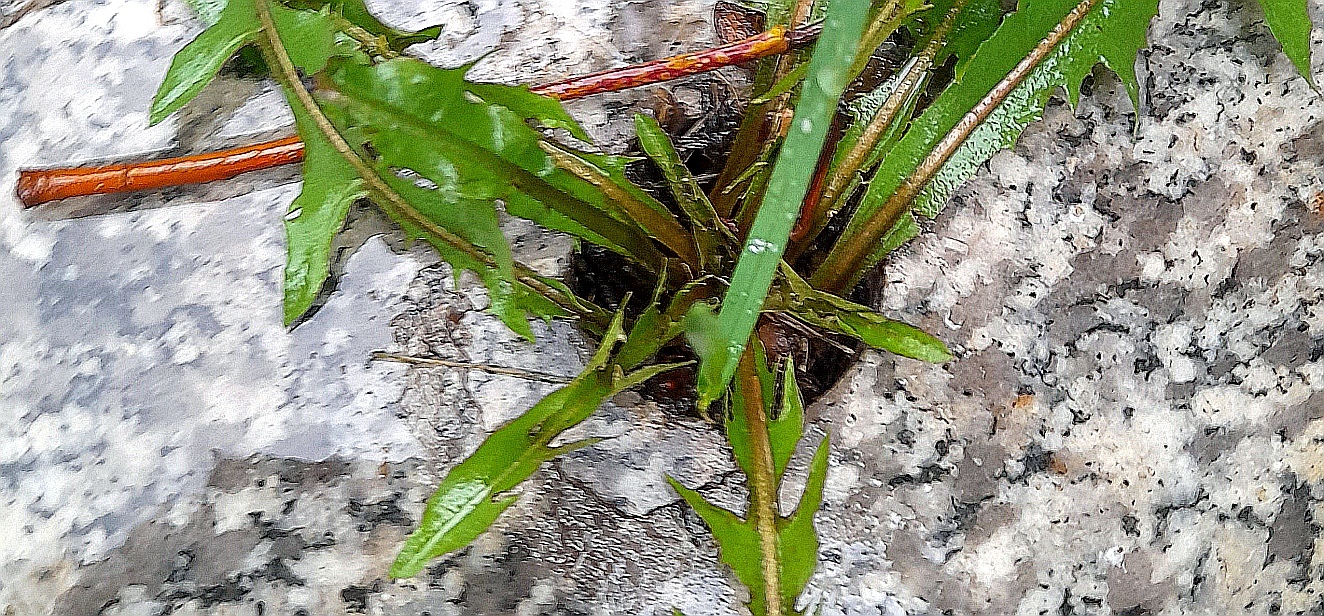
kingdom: Plantae
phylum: Tracheophyta
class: Magnoliopsida
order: Asterales
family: Asteraceae
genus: Taraxacum
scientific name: Taraxacum officinale
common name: Common dandelion
